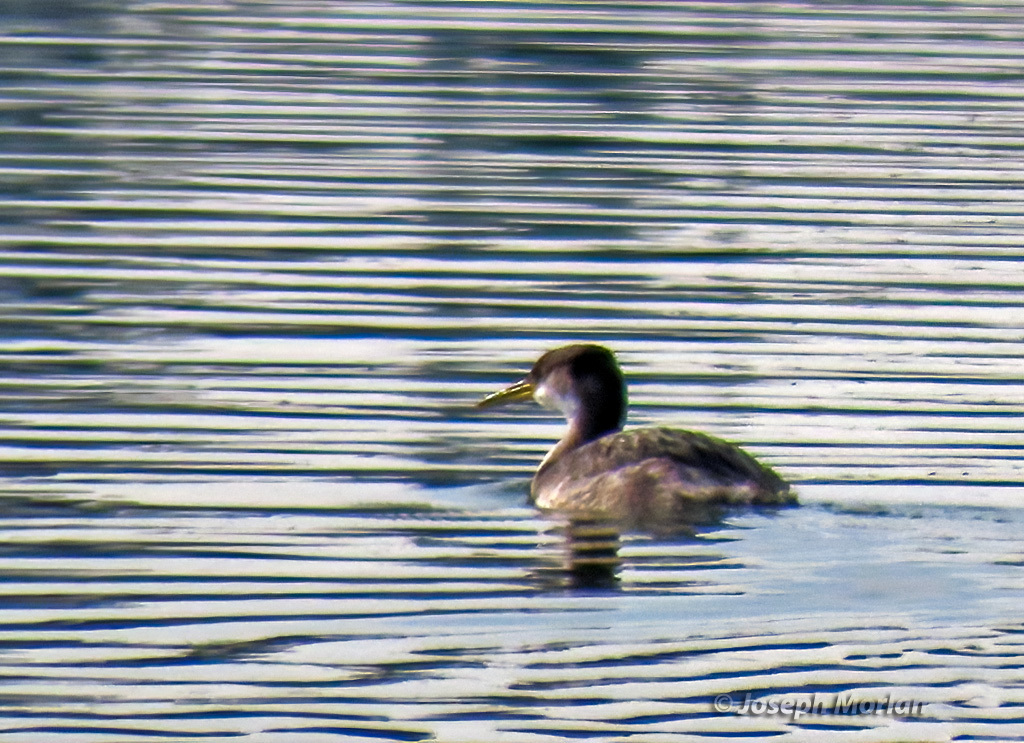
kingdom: Animalia
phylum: Chordata
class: Aves
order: Podicipediformes
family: Podicipedidae
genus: Podiceps
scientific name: Podiceps grisegena
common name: Red-necked grebe
